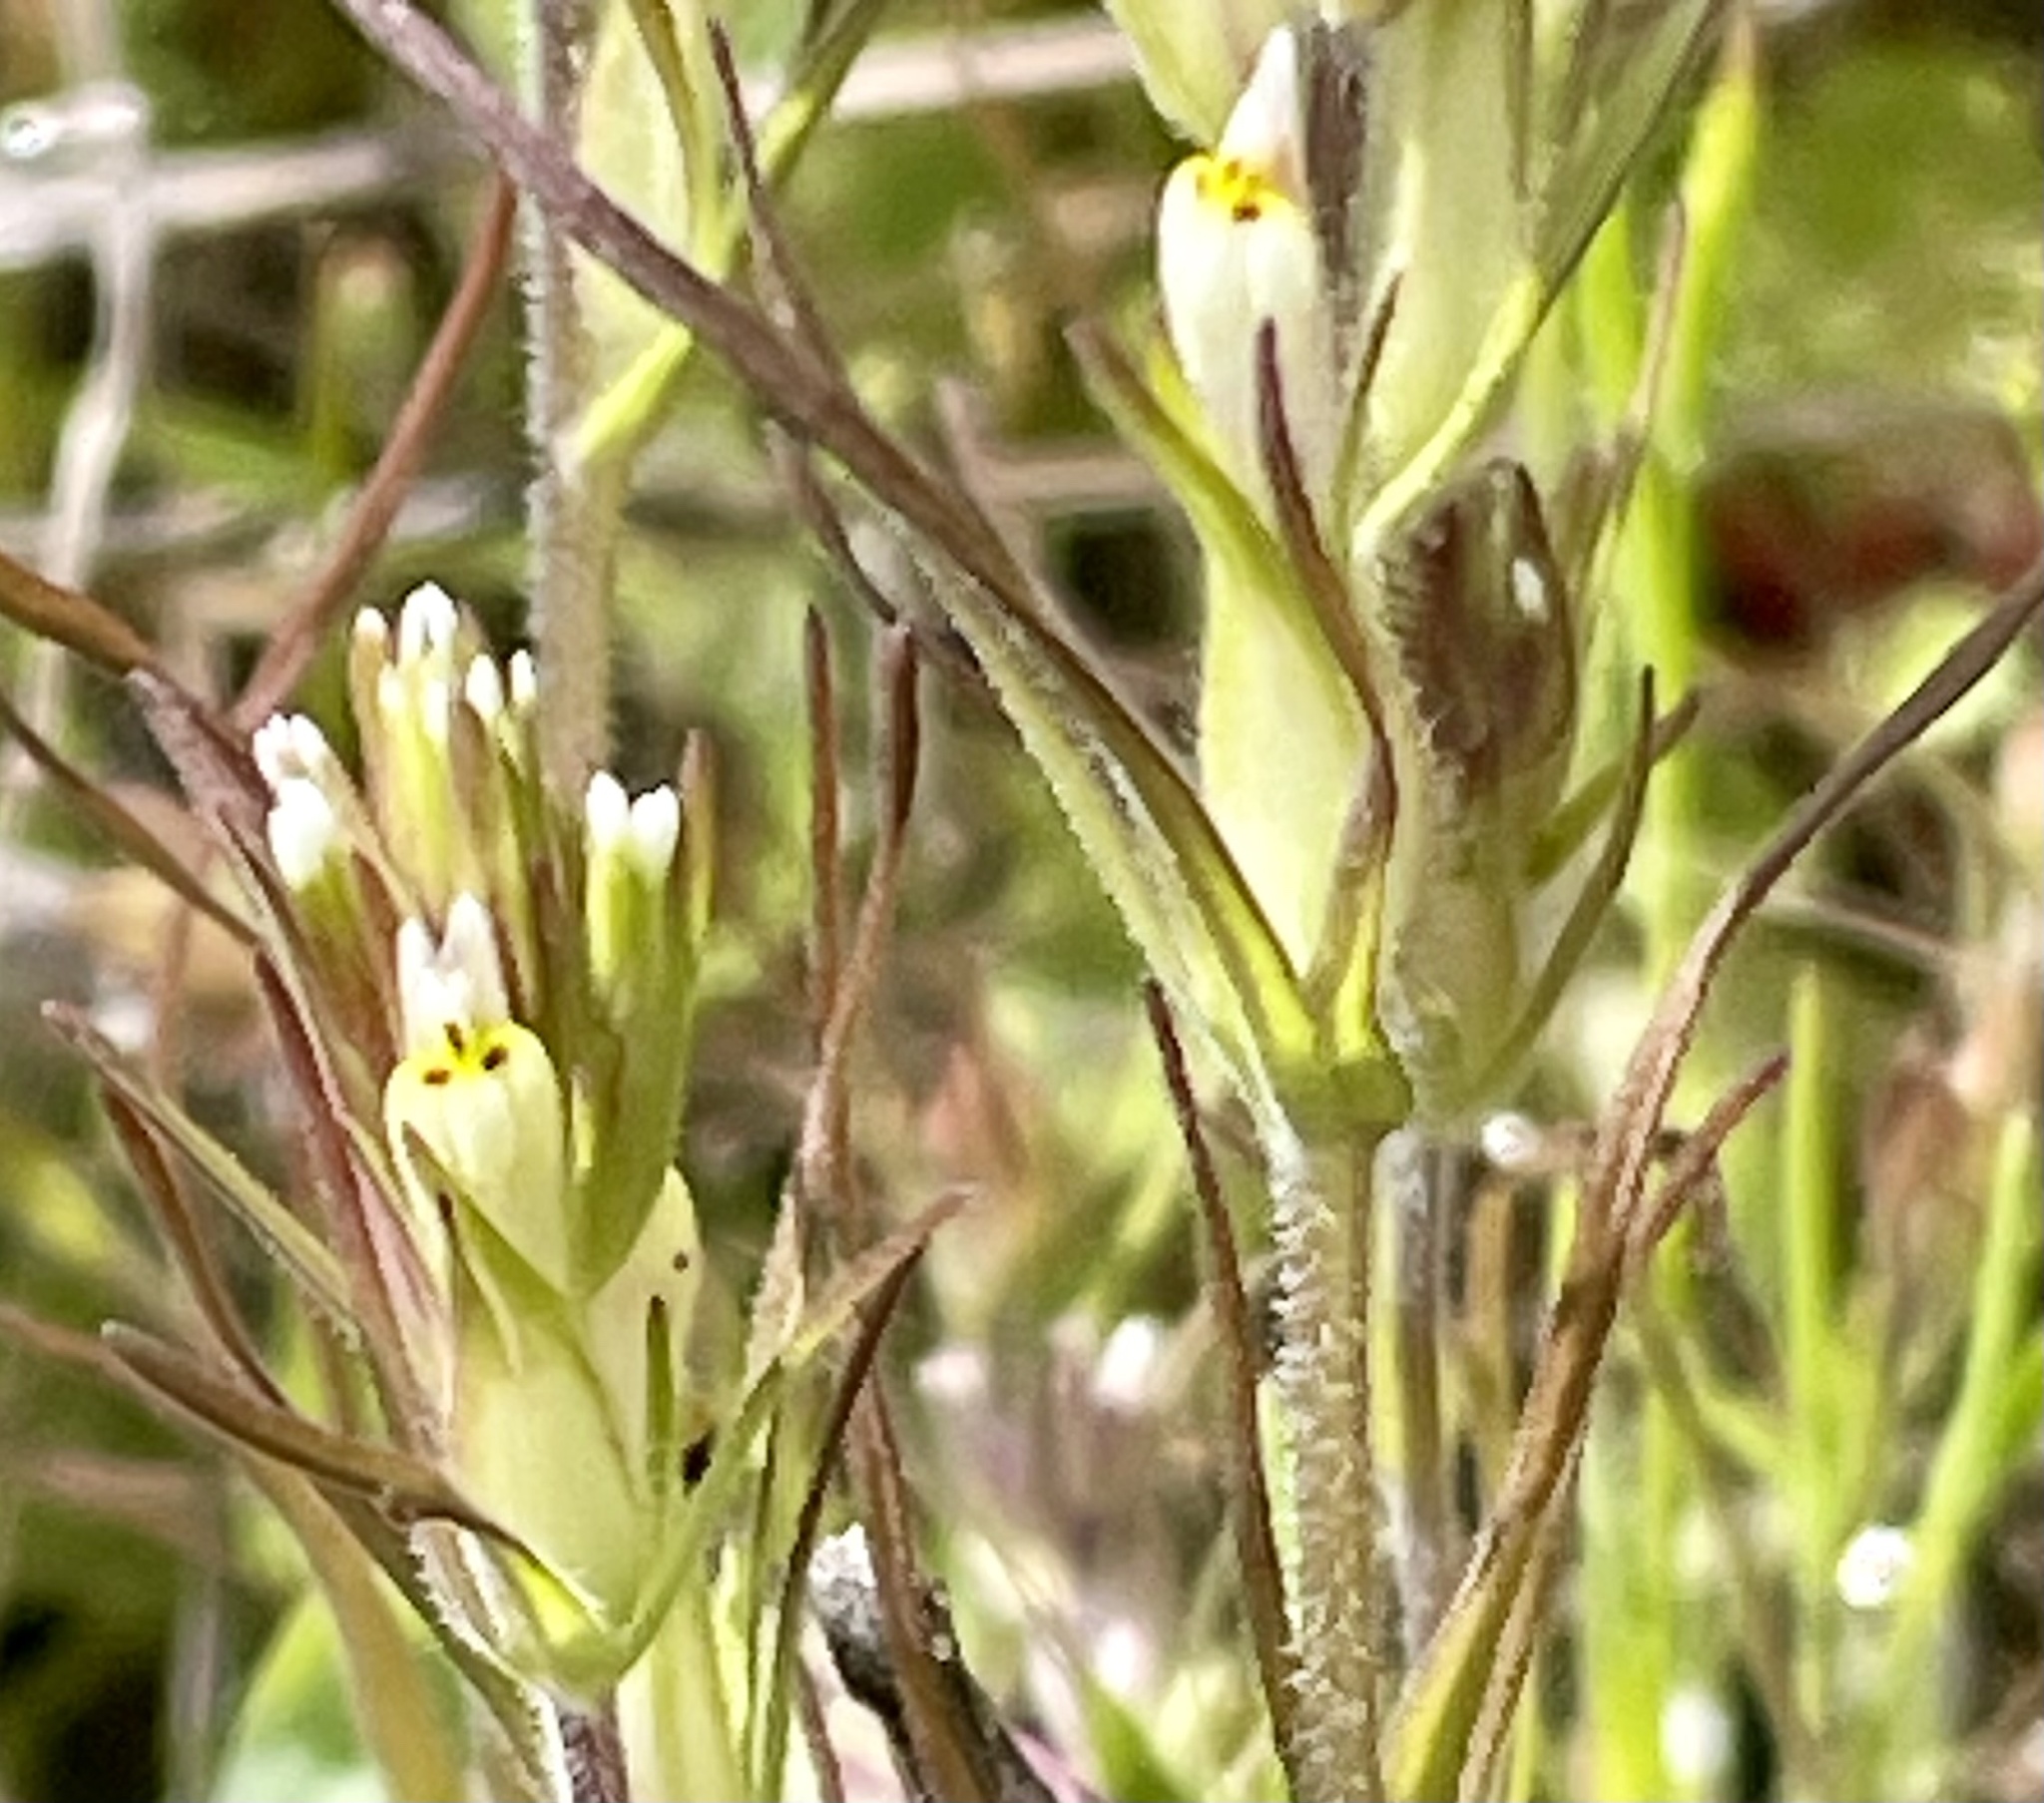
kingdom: Plantae
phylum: Tracheophyta
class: Magnoliopsida
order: Lamiales
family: Orobanchaceae
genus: Castilleja
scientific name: Castilleja attenuata
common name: Valley tassels
